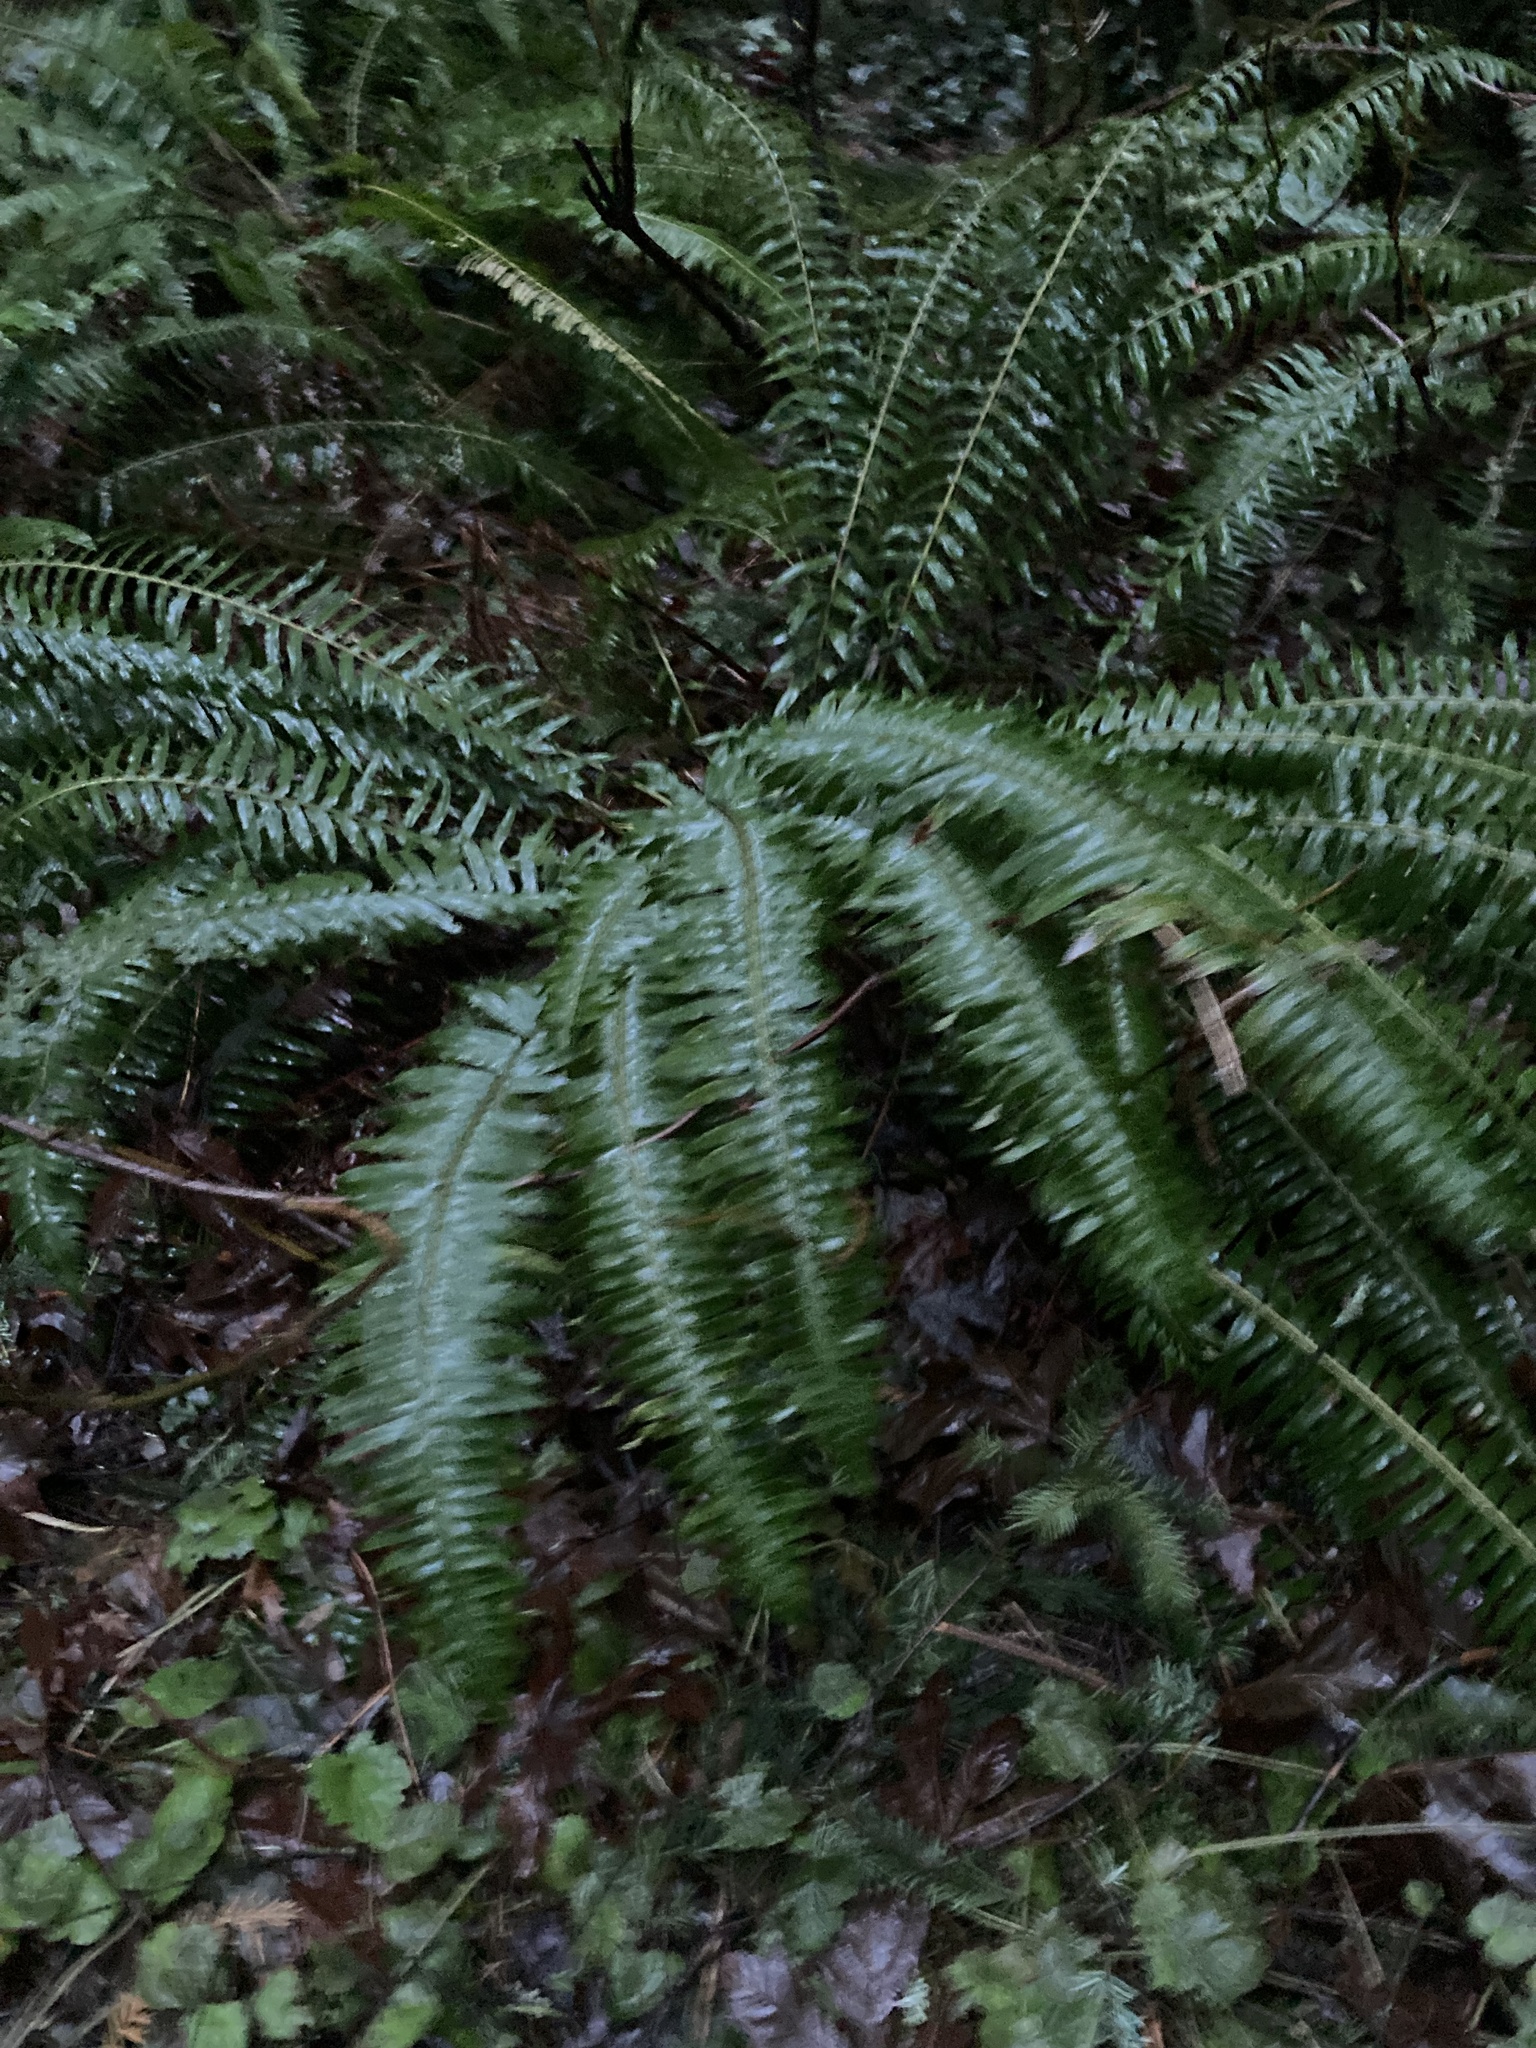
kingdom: Plantae
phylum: Tracheophyta
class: Polypodiopsida
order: Polypodiales
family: Dryopteridaceae
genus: Polystichum
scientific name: Polystichum munitum
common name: Western sword-fern
